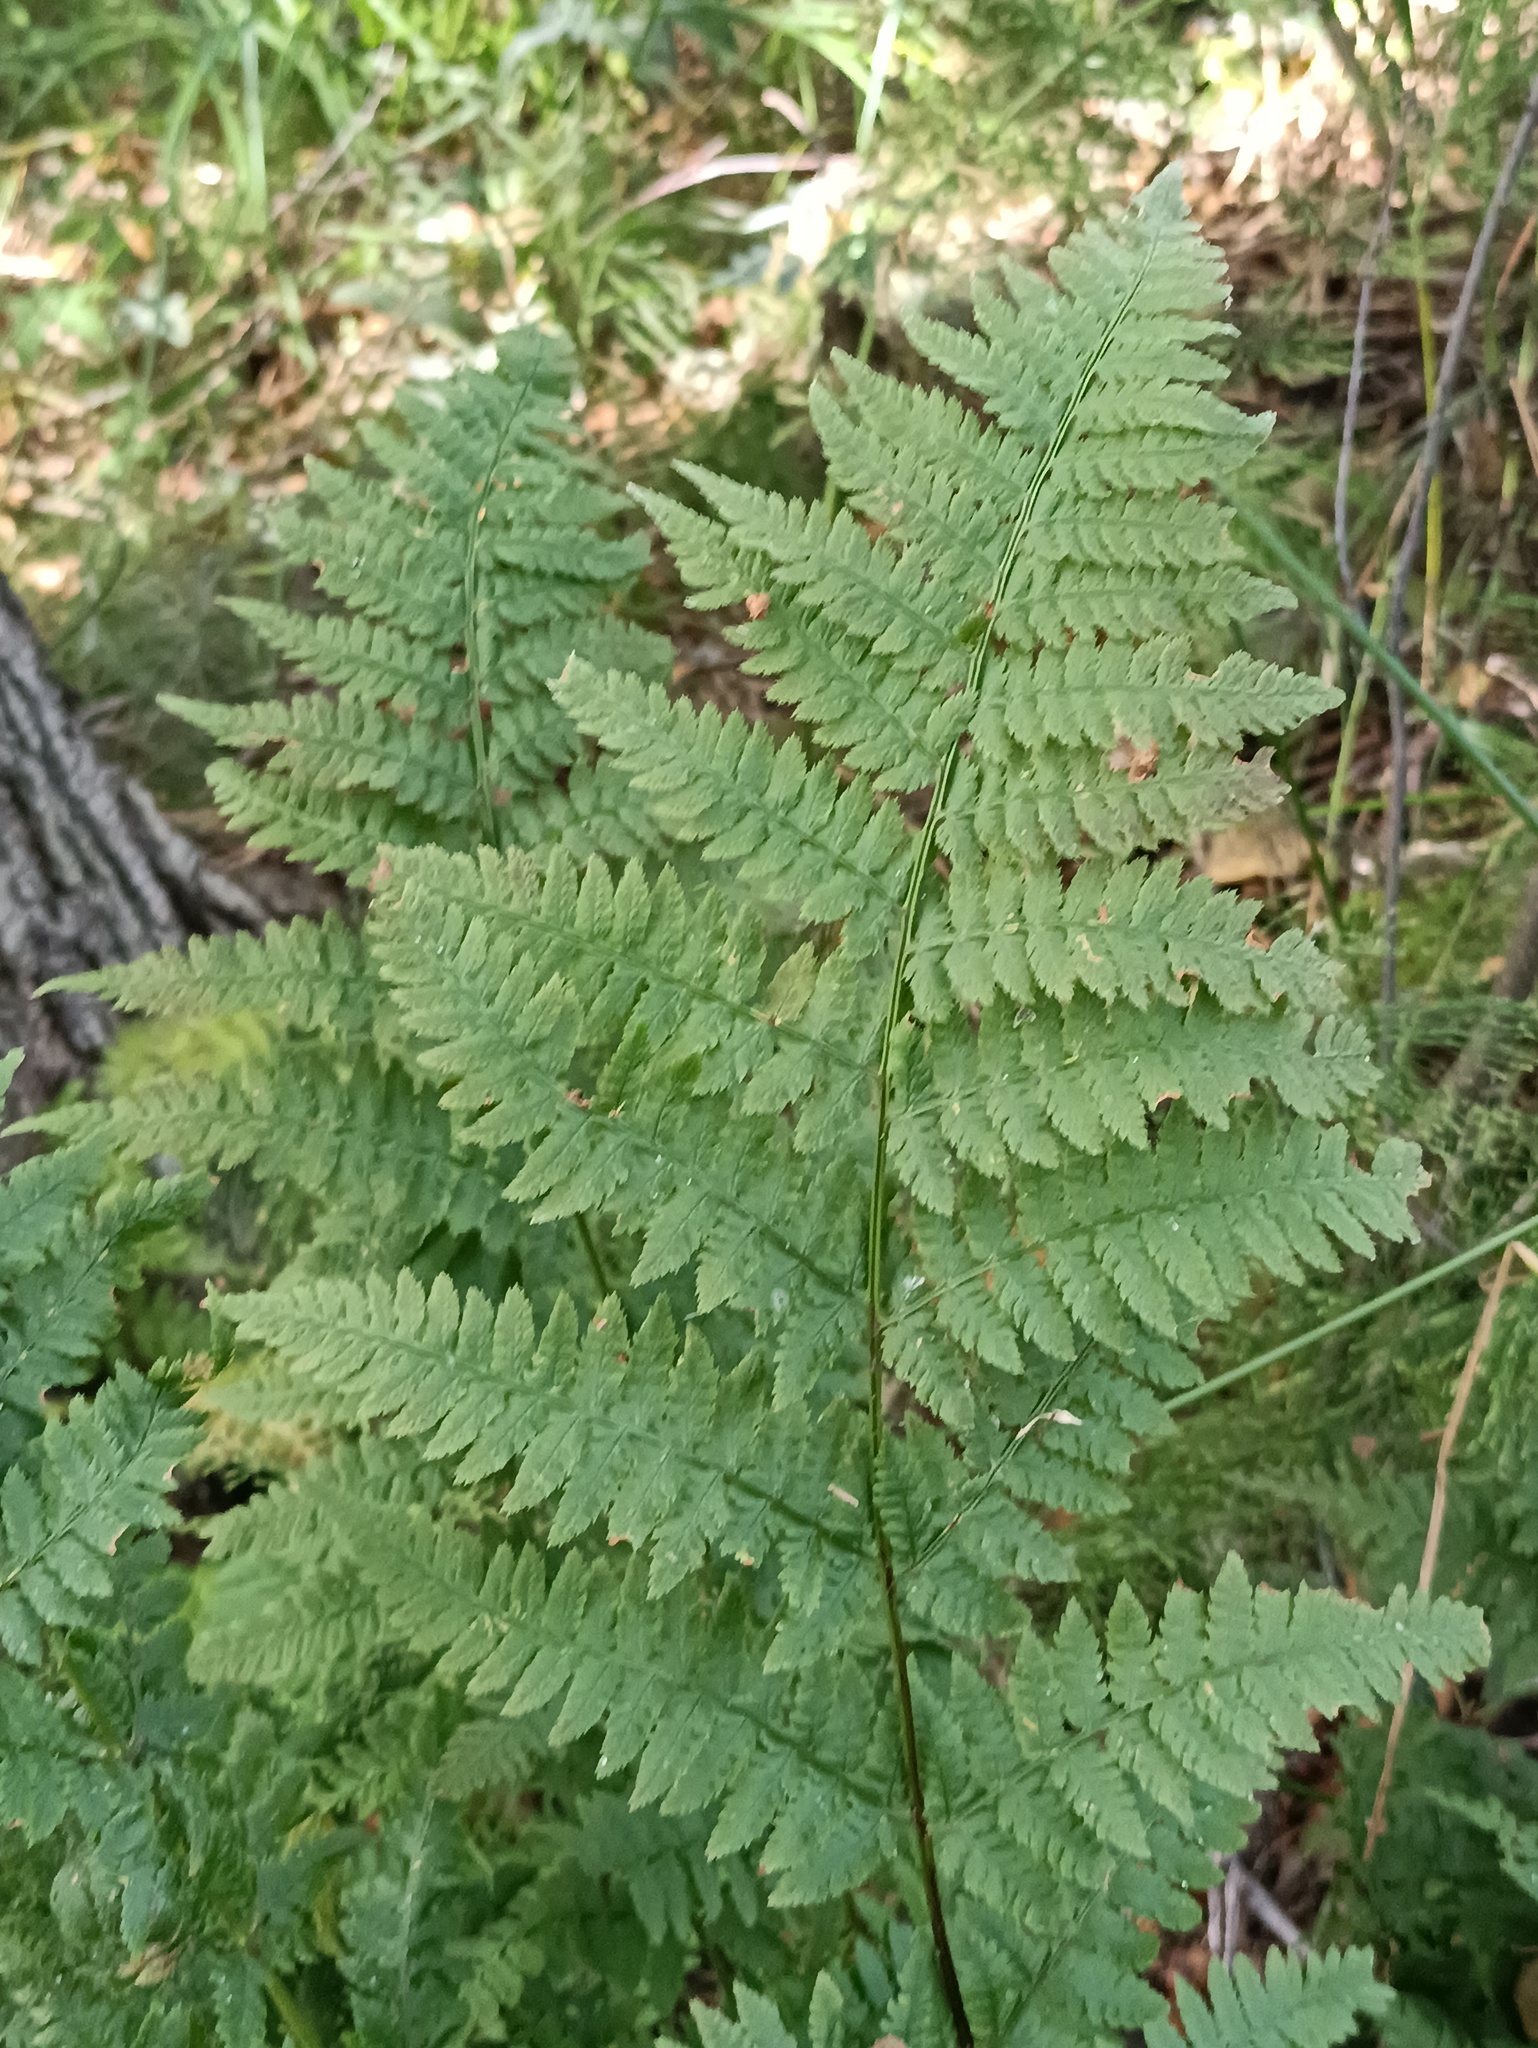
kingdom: Plantae
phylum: Tracheophyta
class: Polypodiopsida
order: Polypodiales
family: Dryopteridaceae
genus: Dryopteris
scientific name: Dryopteris carthusiana
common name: Narrow buckler-fern
